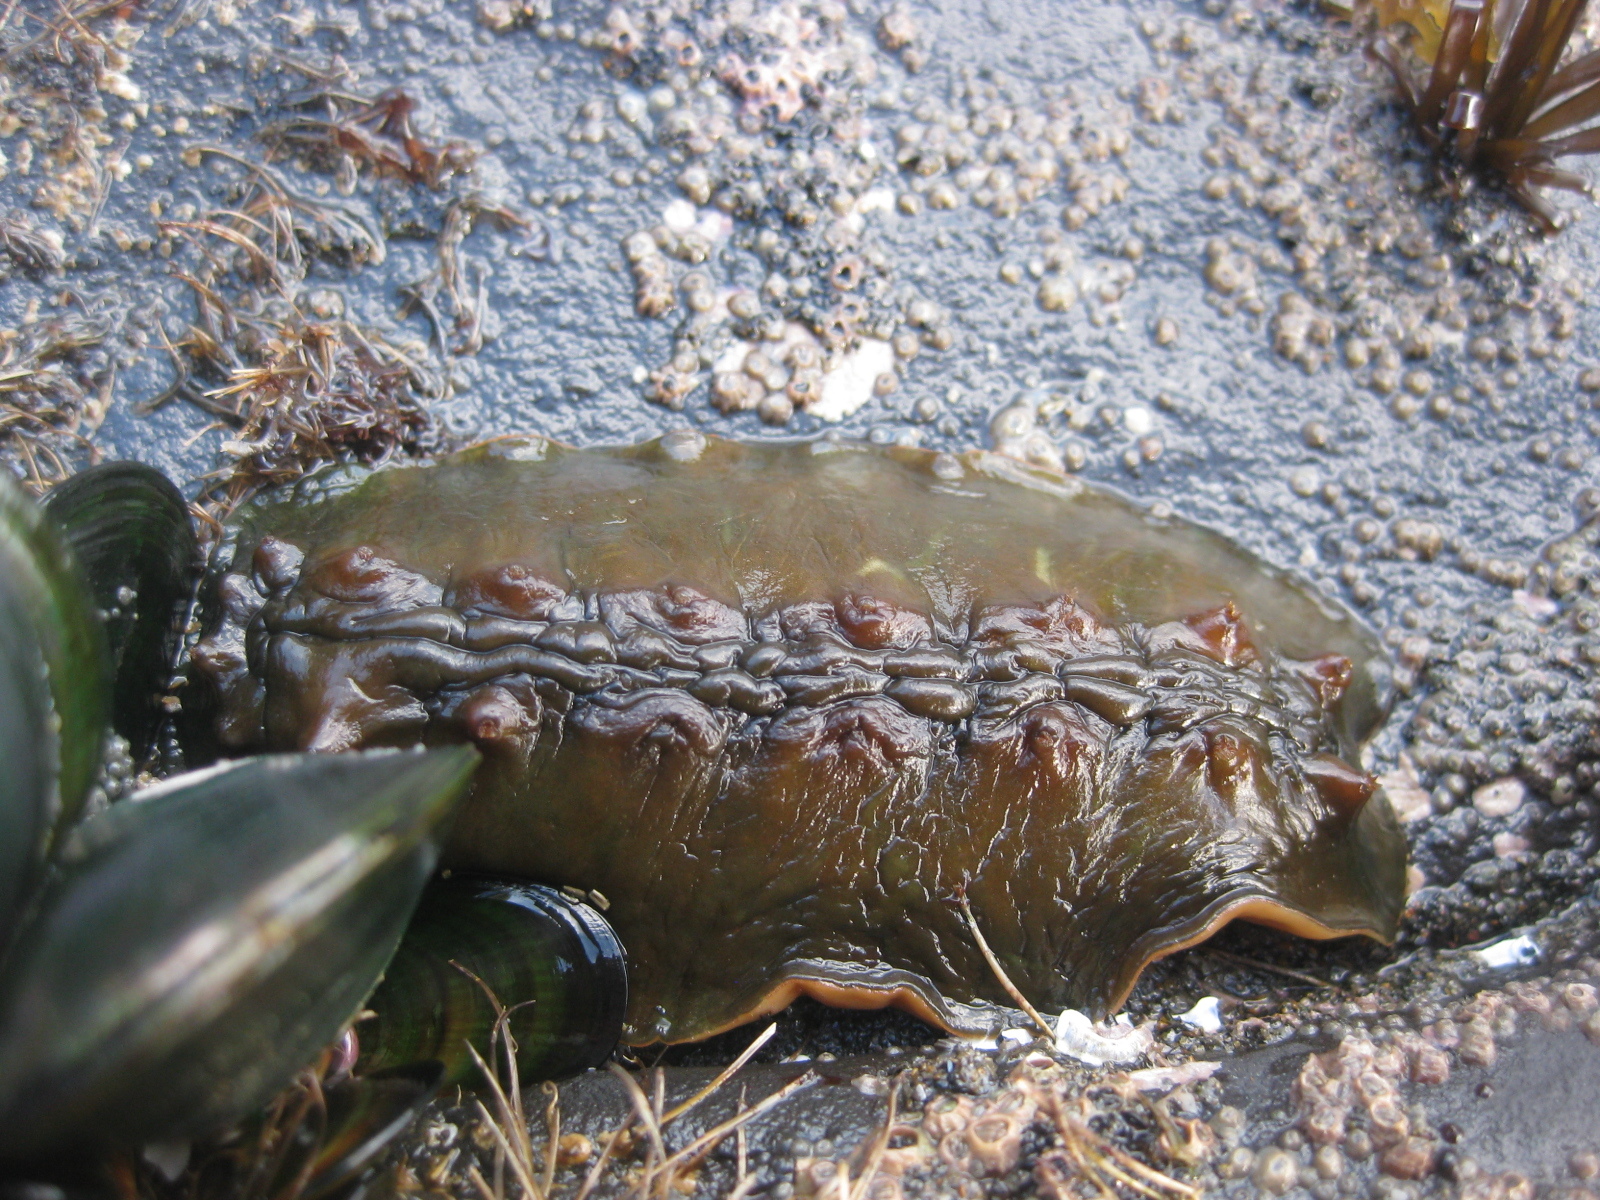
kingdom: Animalia
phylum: Mollusca
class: Polyplacophora
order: Chitonida
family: Acanthochitonidae
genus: Cryptoconchus
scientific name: Cryptoconchus porosus
